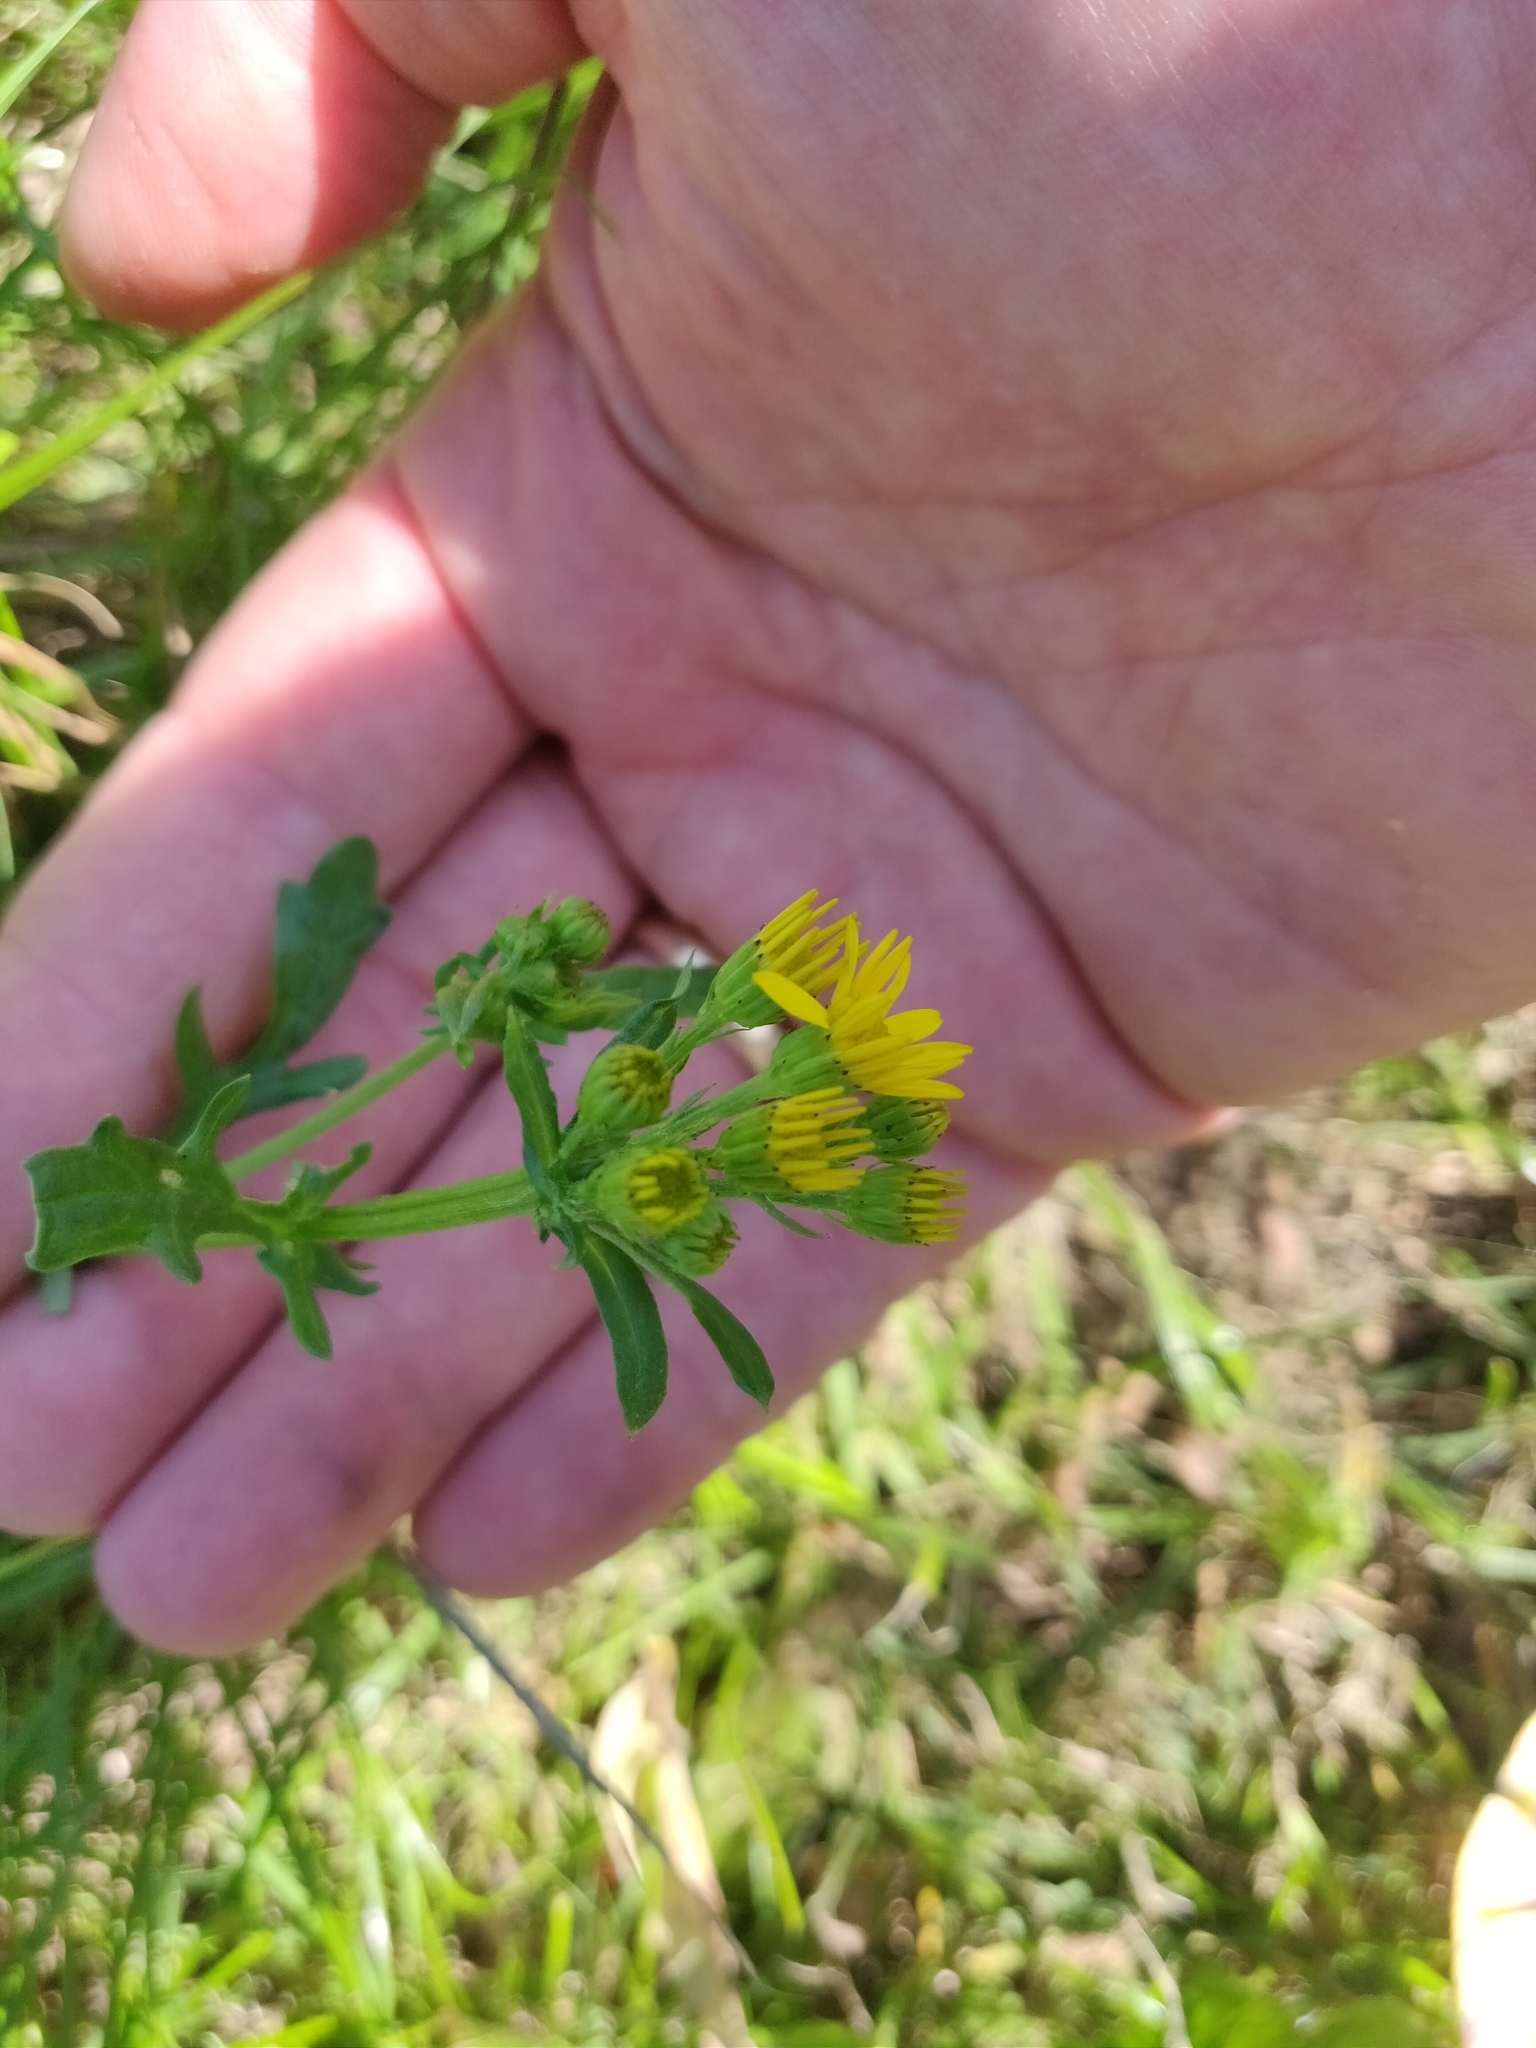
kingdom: Plantae
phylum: Tracheophyta
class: Magnoliopsida
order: Asterales
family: Asteraceae
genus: Jacobaea
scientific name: Jacobaea vulgaris
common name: Stinking willie
